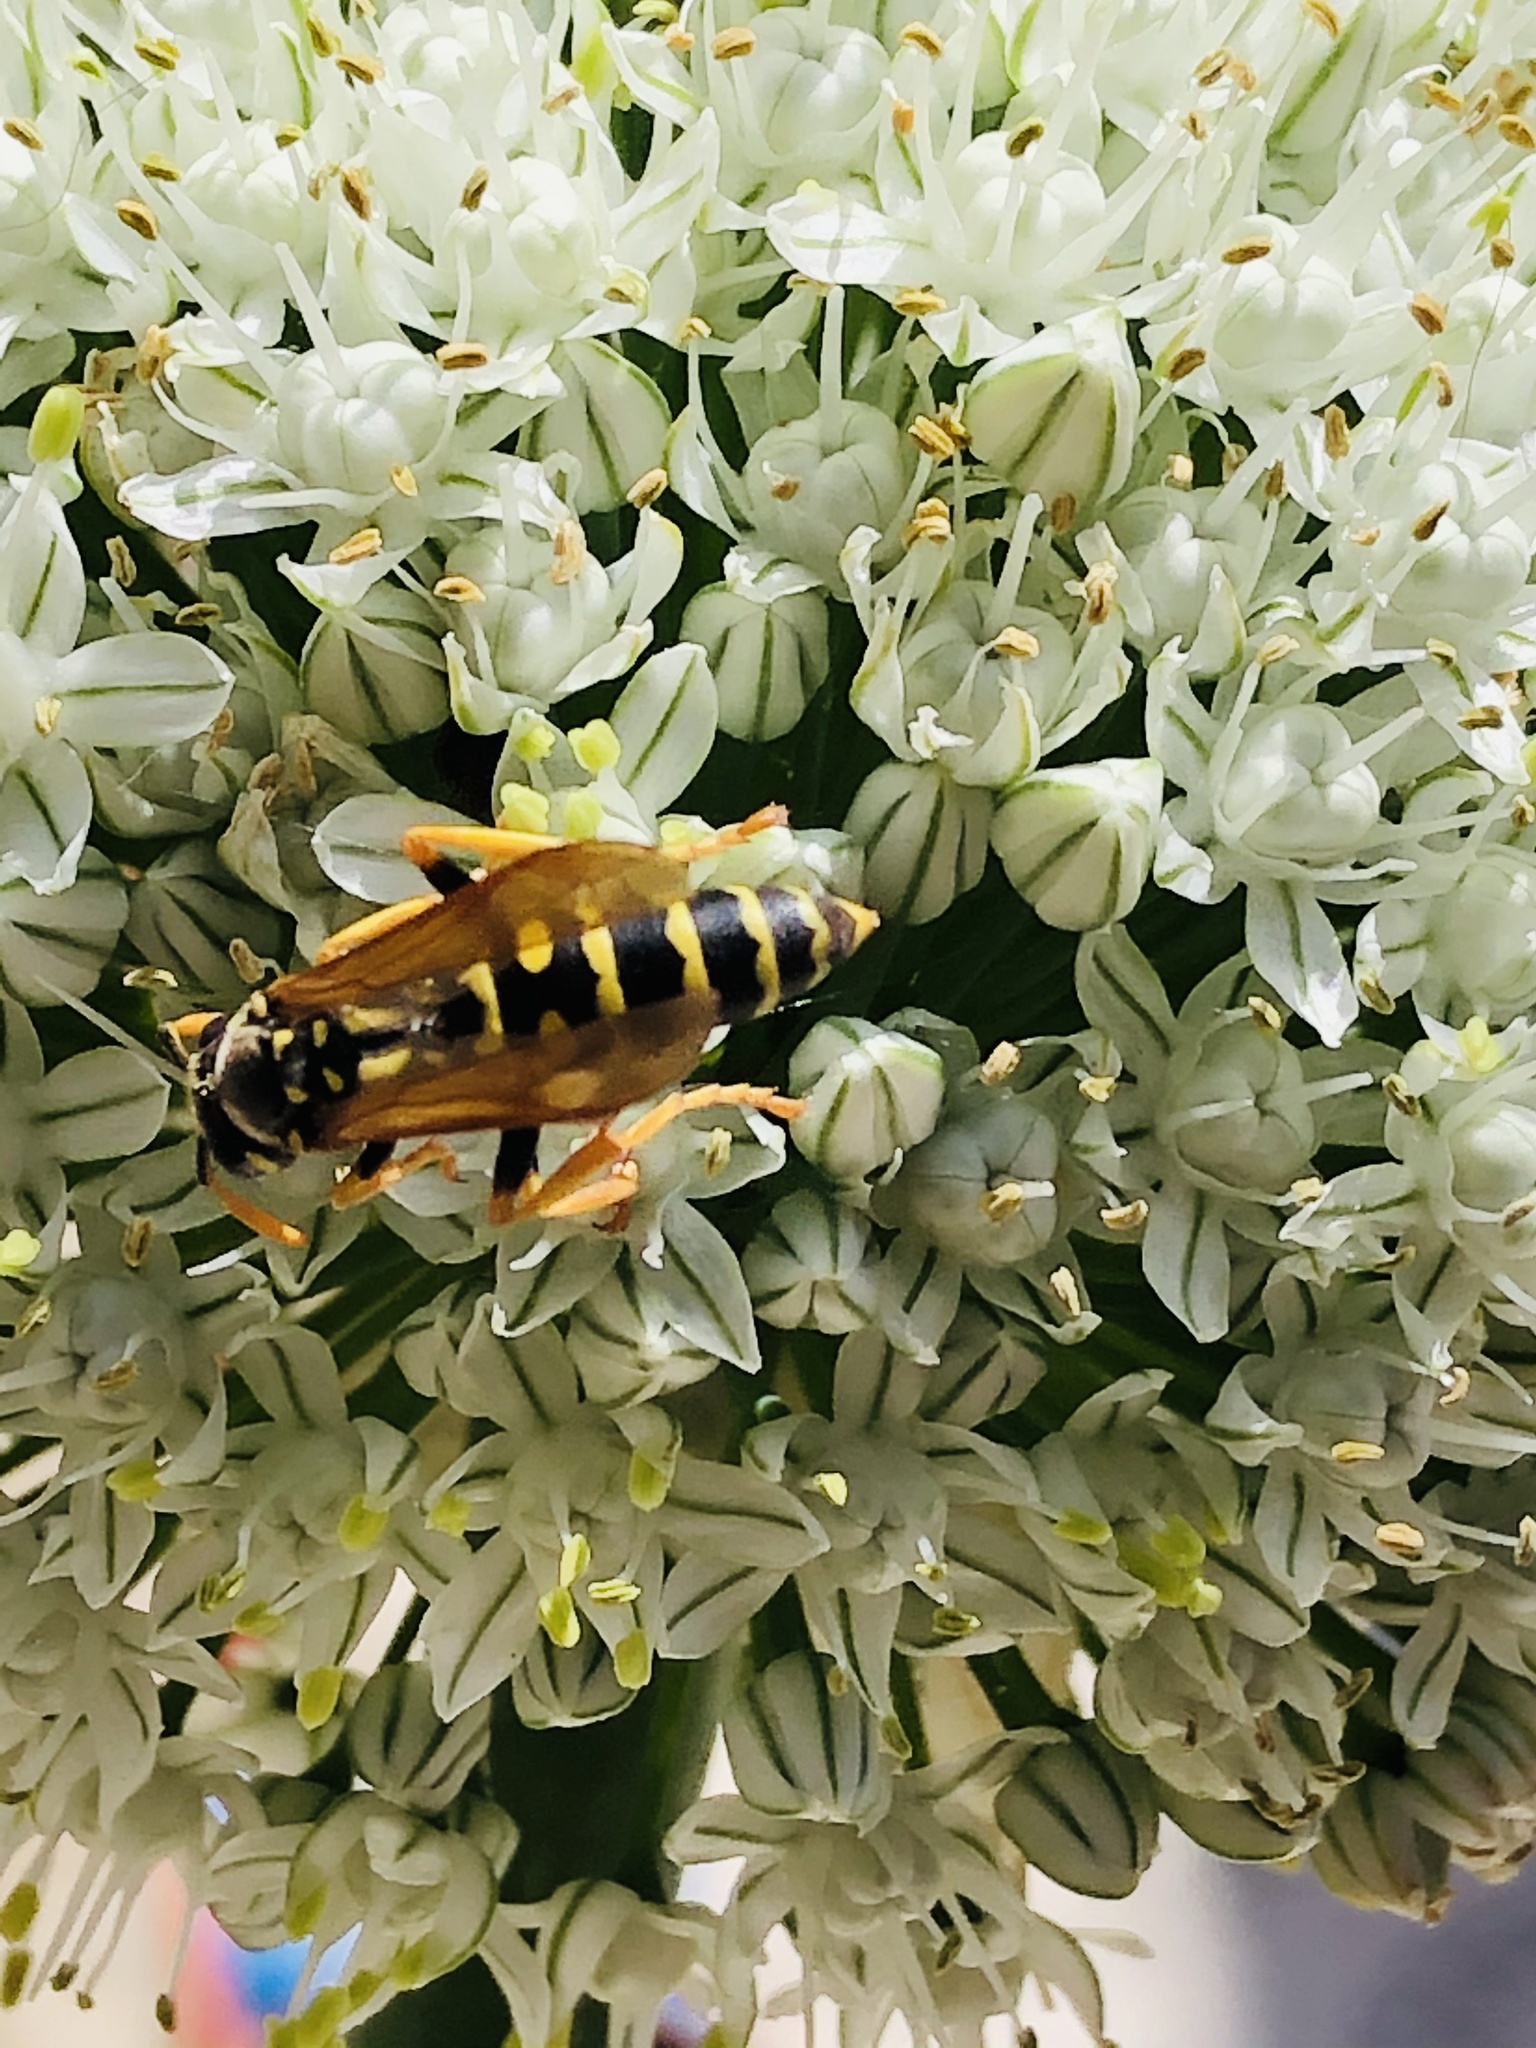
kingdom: Animalia
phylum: Arthropoda
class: Insecta
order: Hymenoptera
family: Eumenidae
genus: Polistes
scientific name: Polistes dominula
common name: Paper wasp
